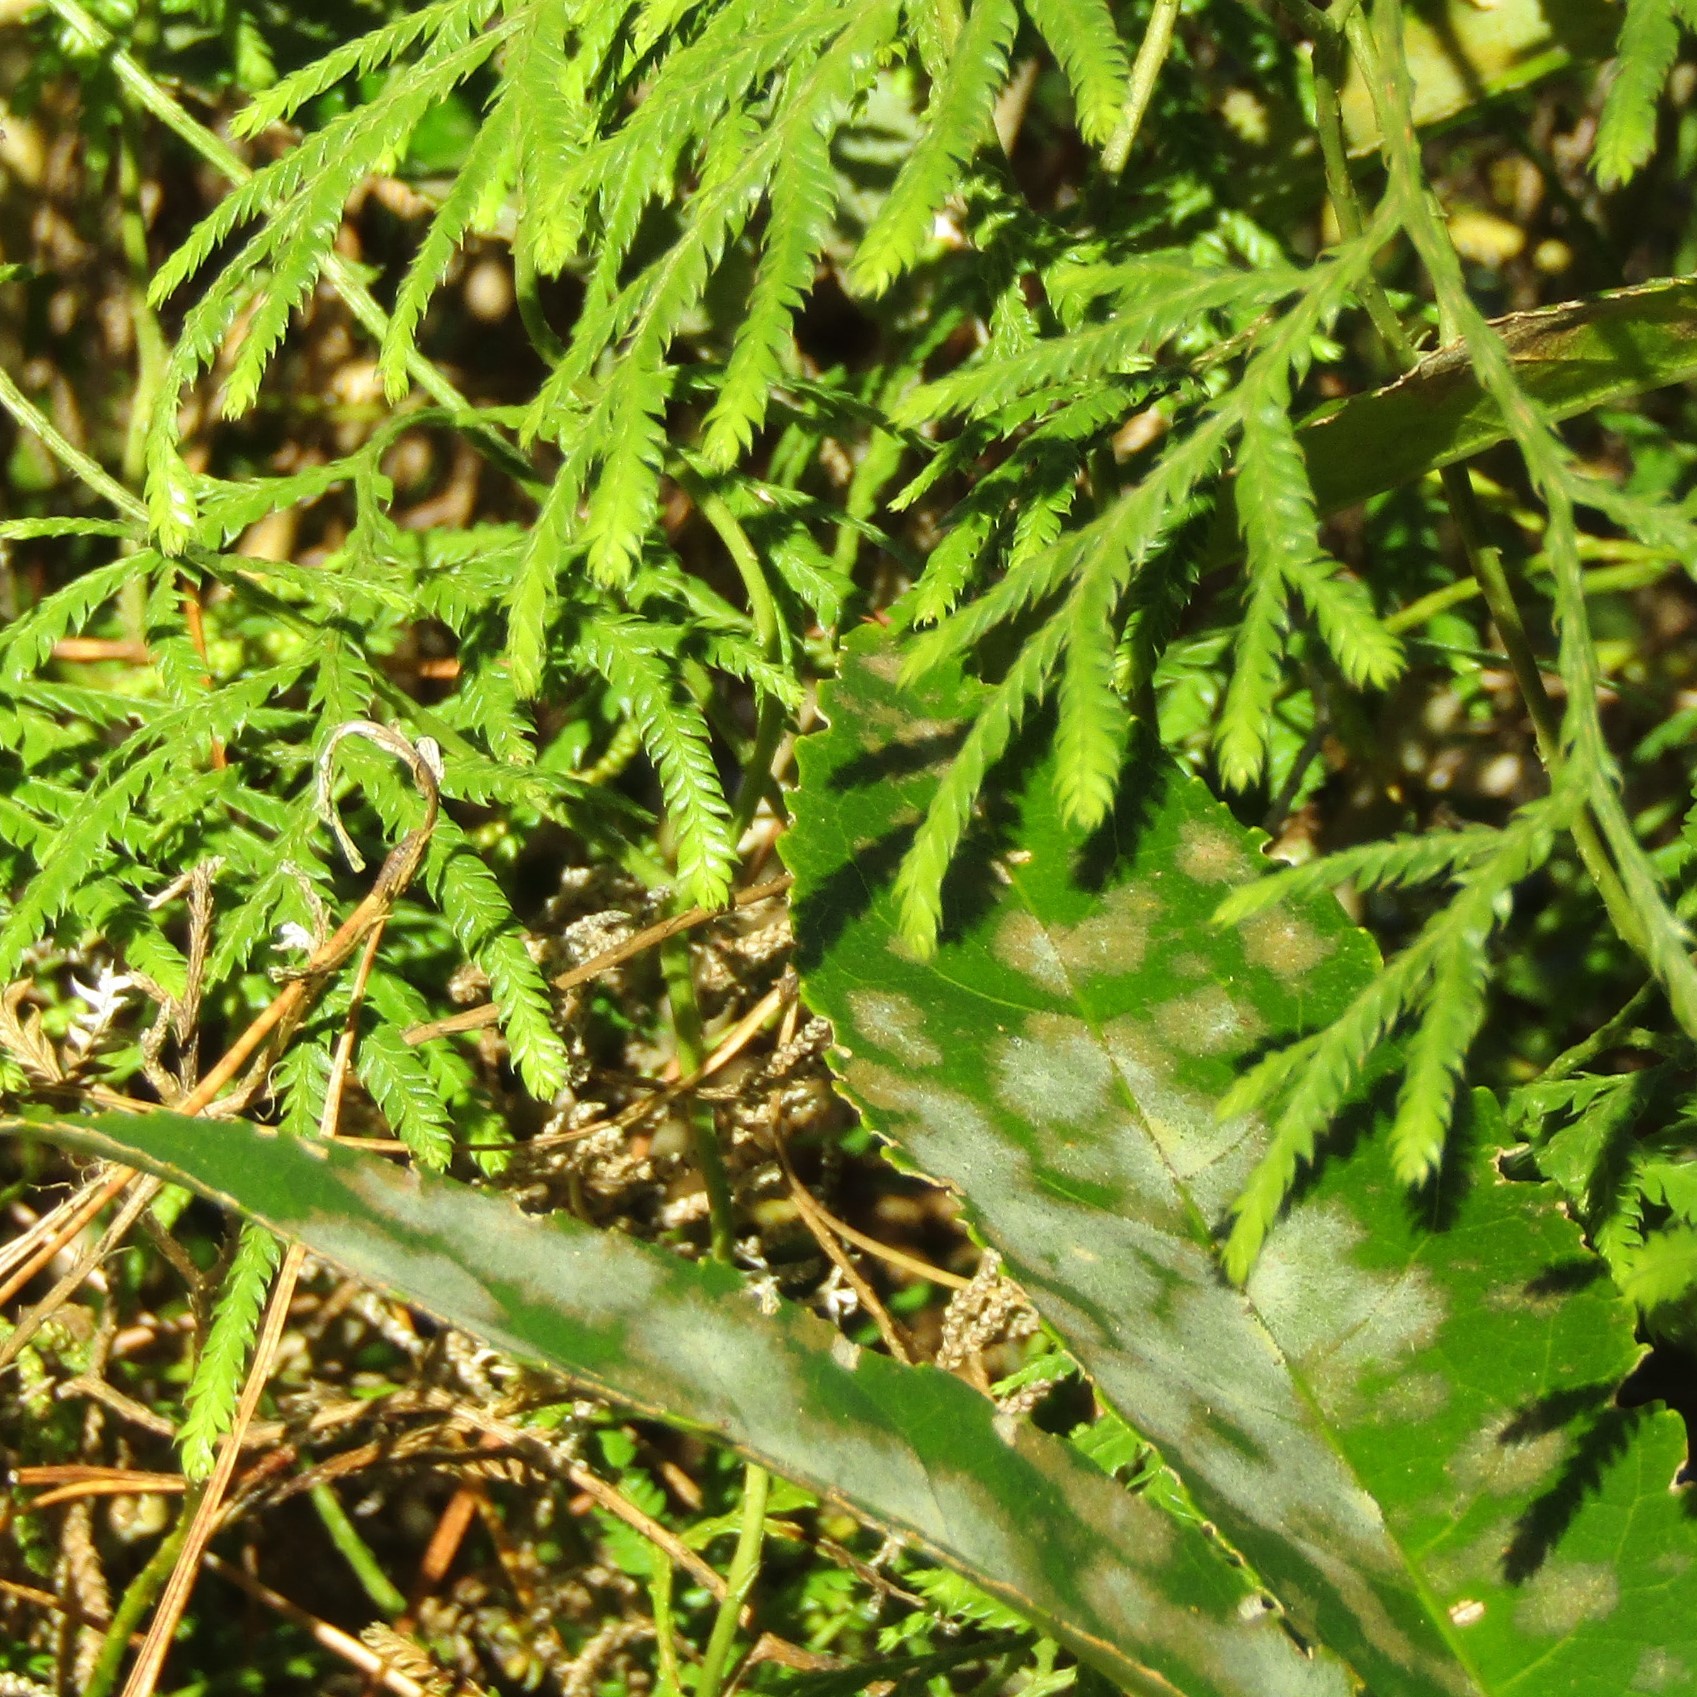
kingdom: Plantae
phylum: Chlorophyta
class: Ulvophyceae
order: Trentepohliales
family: Trentepohliaceae
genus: Cephaleuros
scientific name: Cephaleuros
